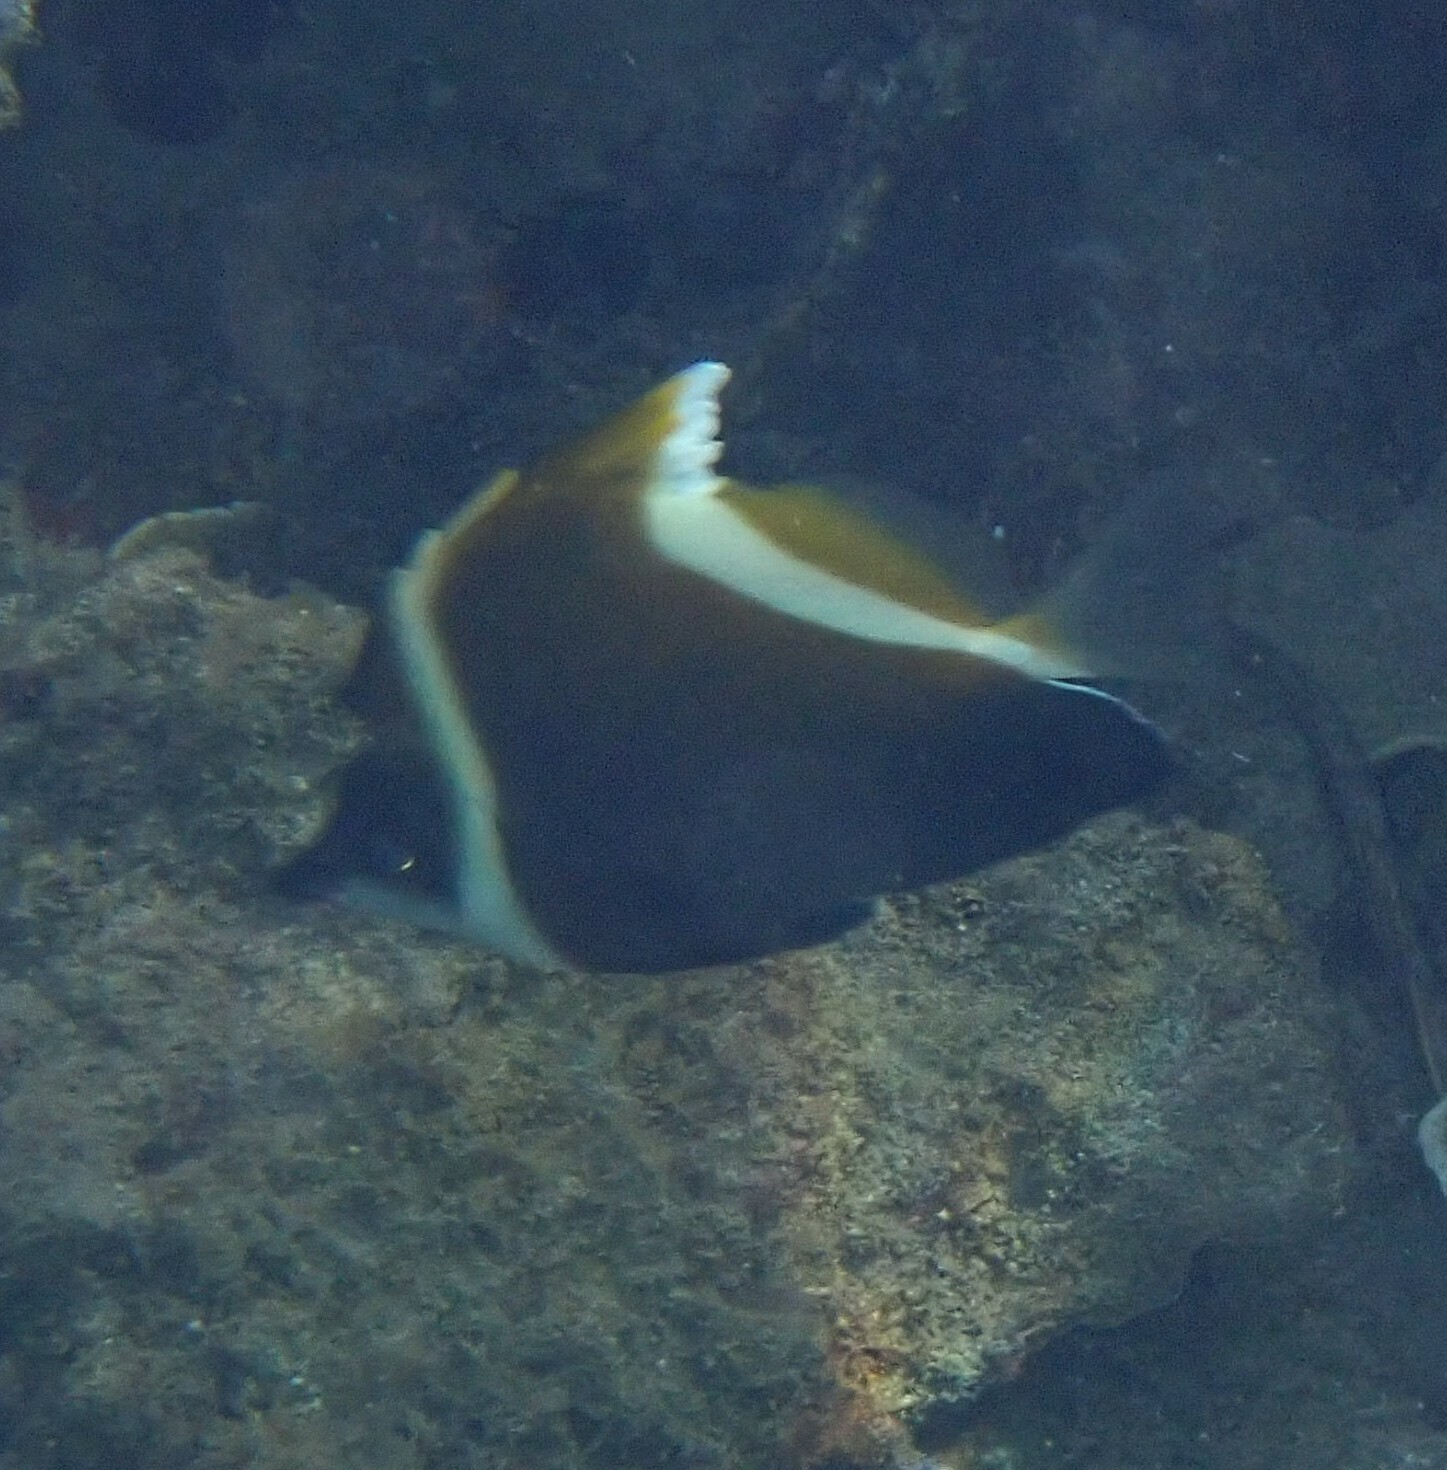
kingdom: Animalia
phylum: Chordata
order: Perciformes
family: Chaetodontidae
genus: Heniochus
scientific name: Heniochus varius
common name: Horned bannerfish
